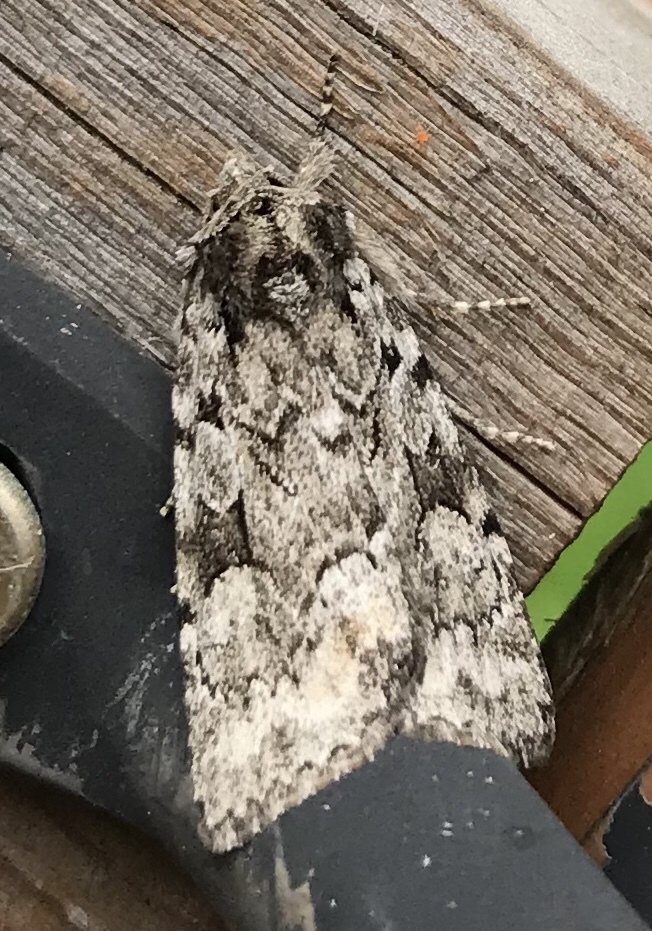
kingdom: Animalia
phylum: Arthropoda
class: Insecta
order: Lepidoptera
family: Noctuidae
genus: Aplectoides
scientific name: Aplectoides condita
